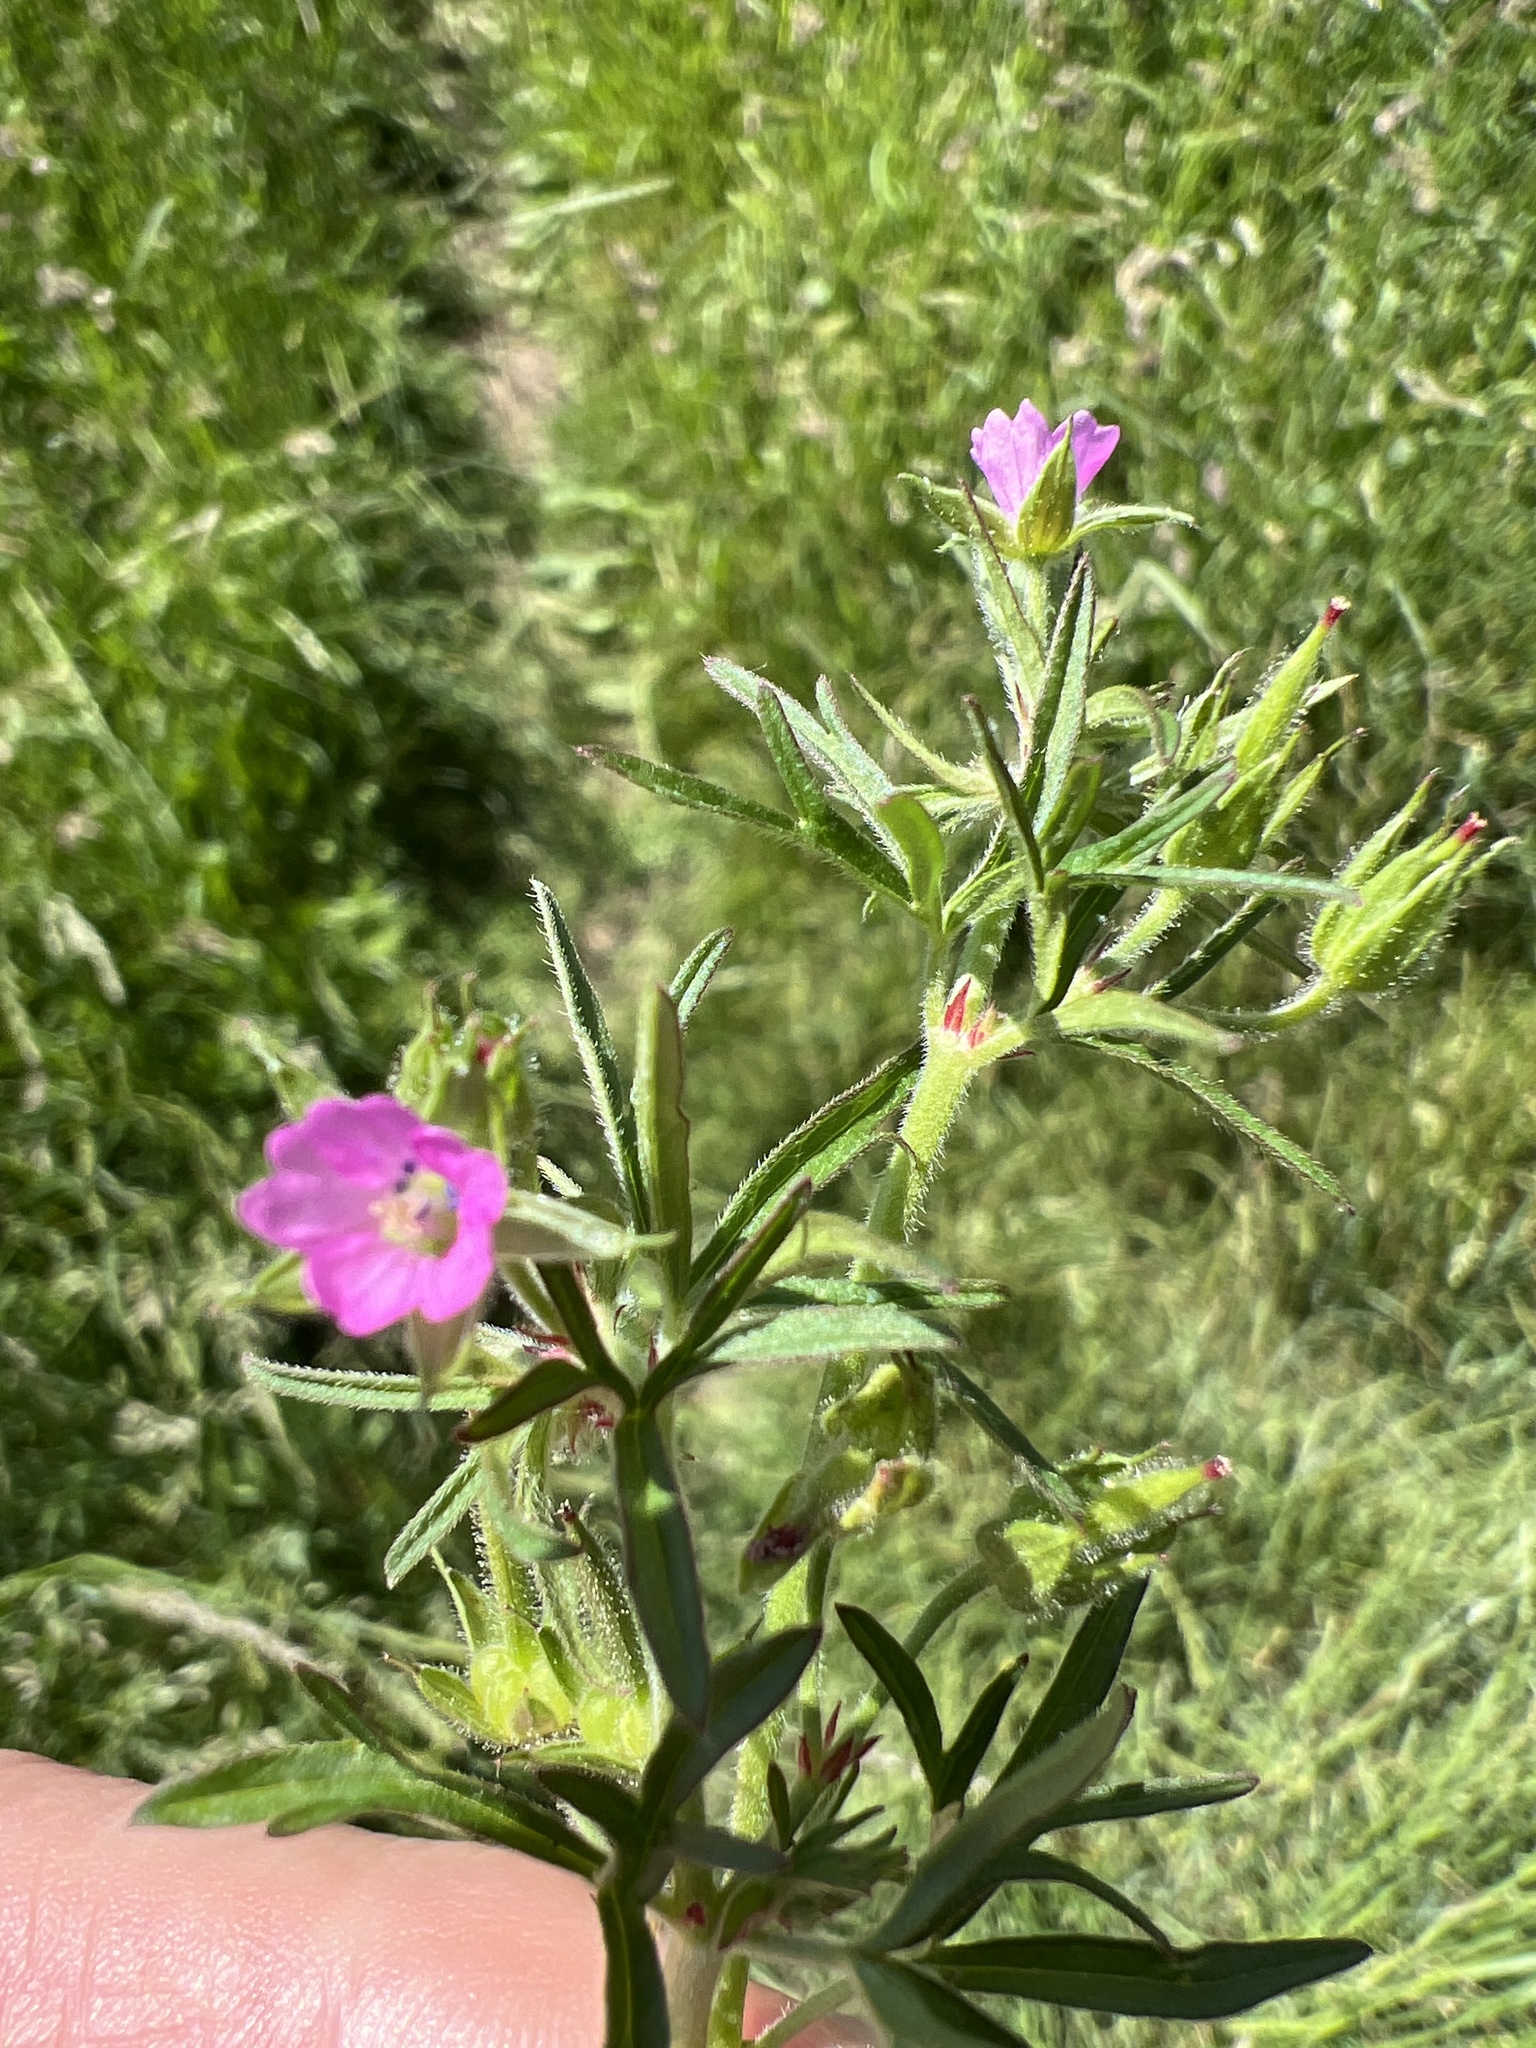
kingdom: Plantae
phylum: Tracheophyta
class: Magnoliopsida
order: Geraniales
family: Geraniaceae
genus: Geranium
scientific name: Geranium dissectum
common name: Cut-leaved crane's-bill
